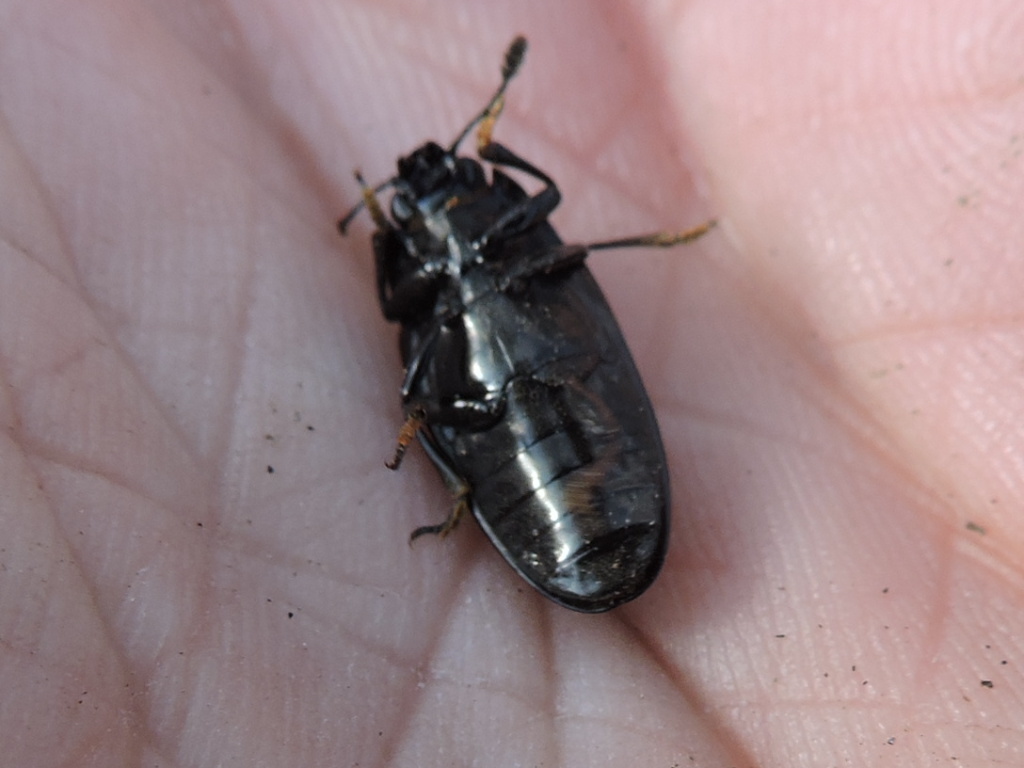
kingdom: Animalia
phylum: Arthropoda
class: Insecta
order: Coleoptera
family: Erotylidae
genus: Megalodacne
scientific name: Megalodacne fasciata
